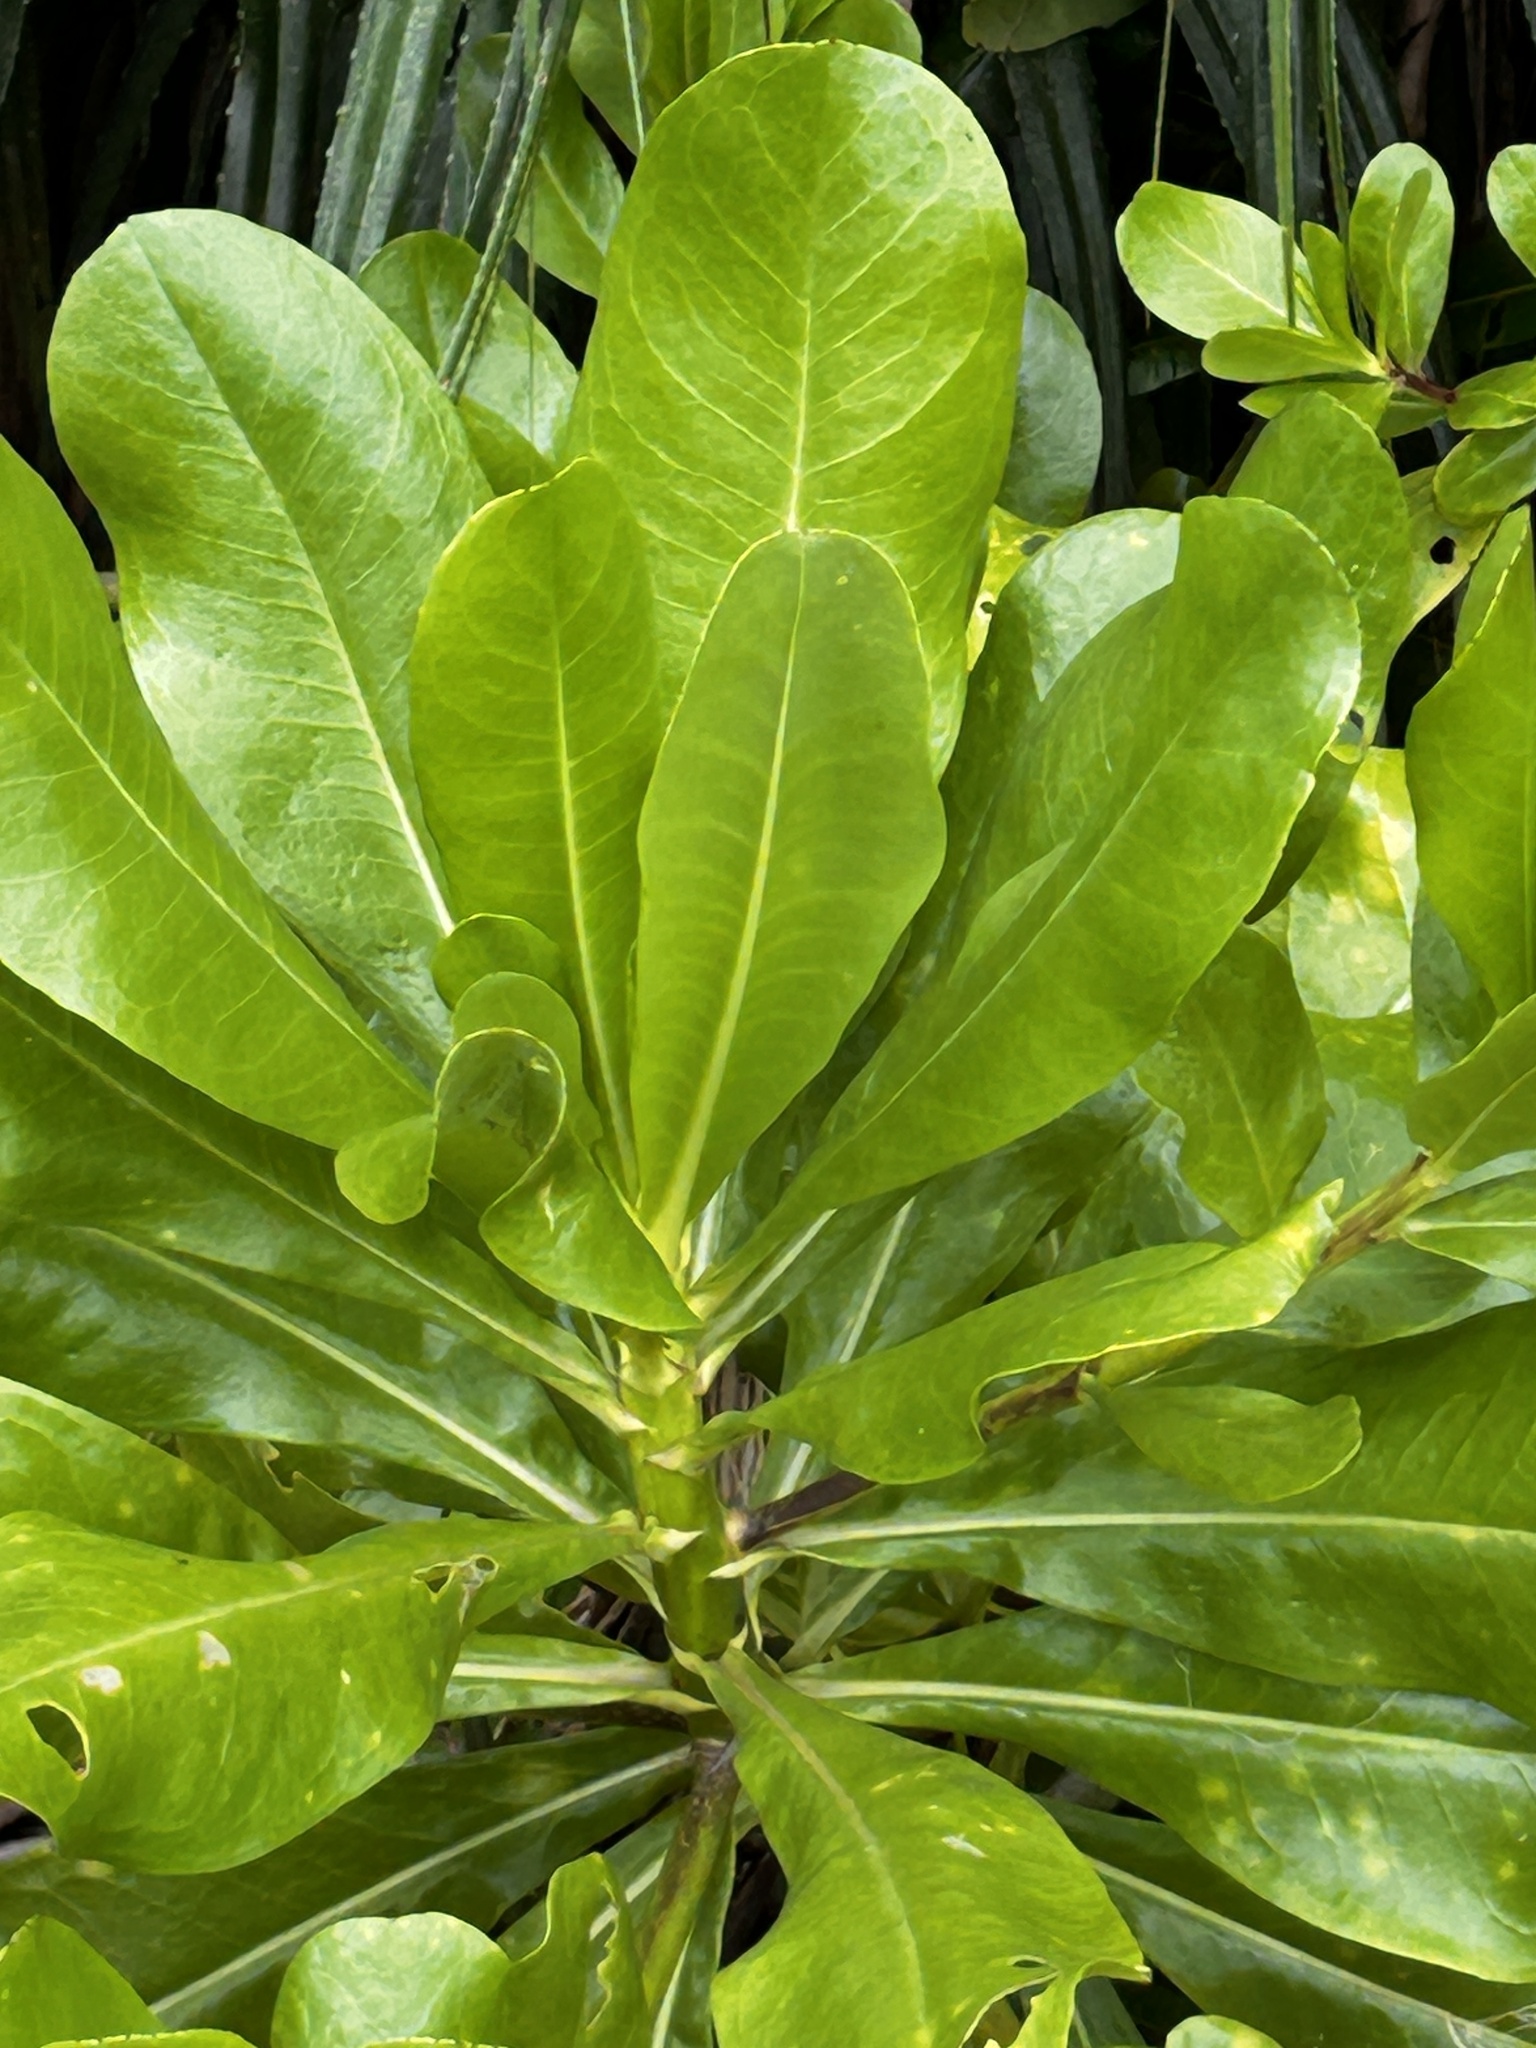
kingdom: Plantae
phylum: Tracheophyta
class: Magnoliopsida
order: Asterales
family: Goodeniaceae
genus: Scaevola
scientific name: Scaevola taccada
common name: Sea lettucetree
